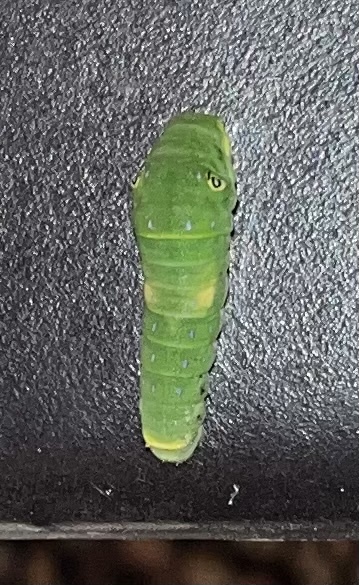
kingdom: Animalia
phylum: Arthropoda
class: Insecta
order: Lepidoptera
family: Papilionidae
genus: Papilio
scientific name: Papilio glaucus
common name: Tiger swallowtail
